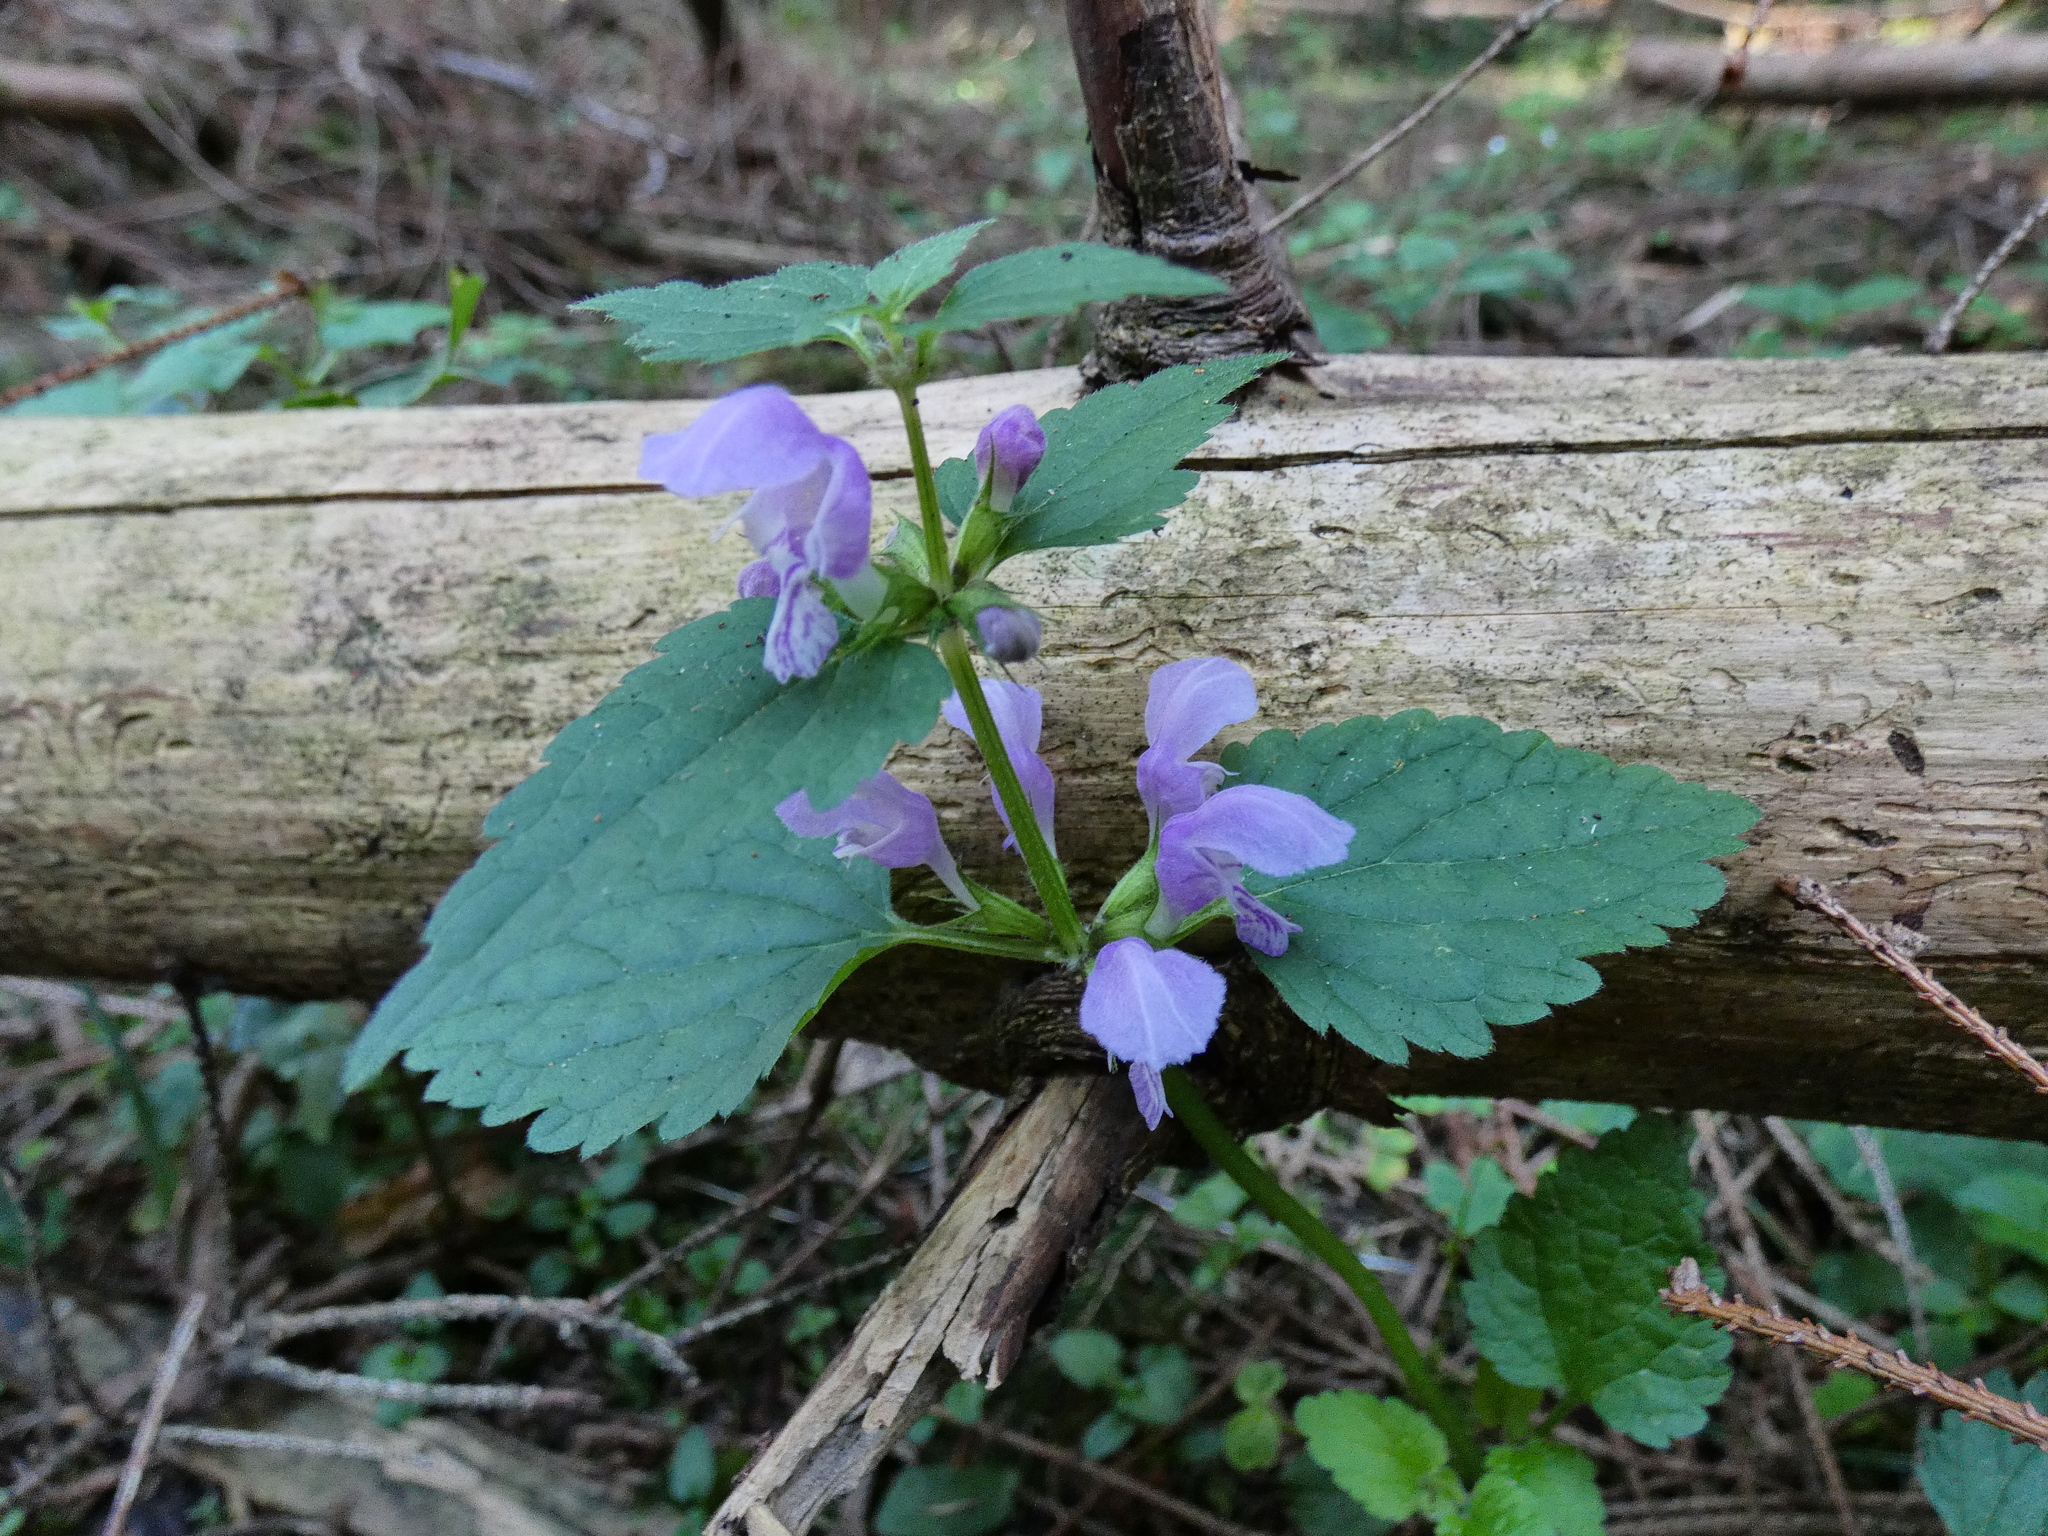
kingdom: Plantae
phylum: Tracheophyta
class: Magnoliopsida
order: Lamiales
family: Lamiaceae
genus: Lamium
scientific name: Lamium maculatum
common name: Spotted dead-nettle
